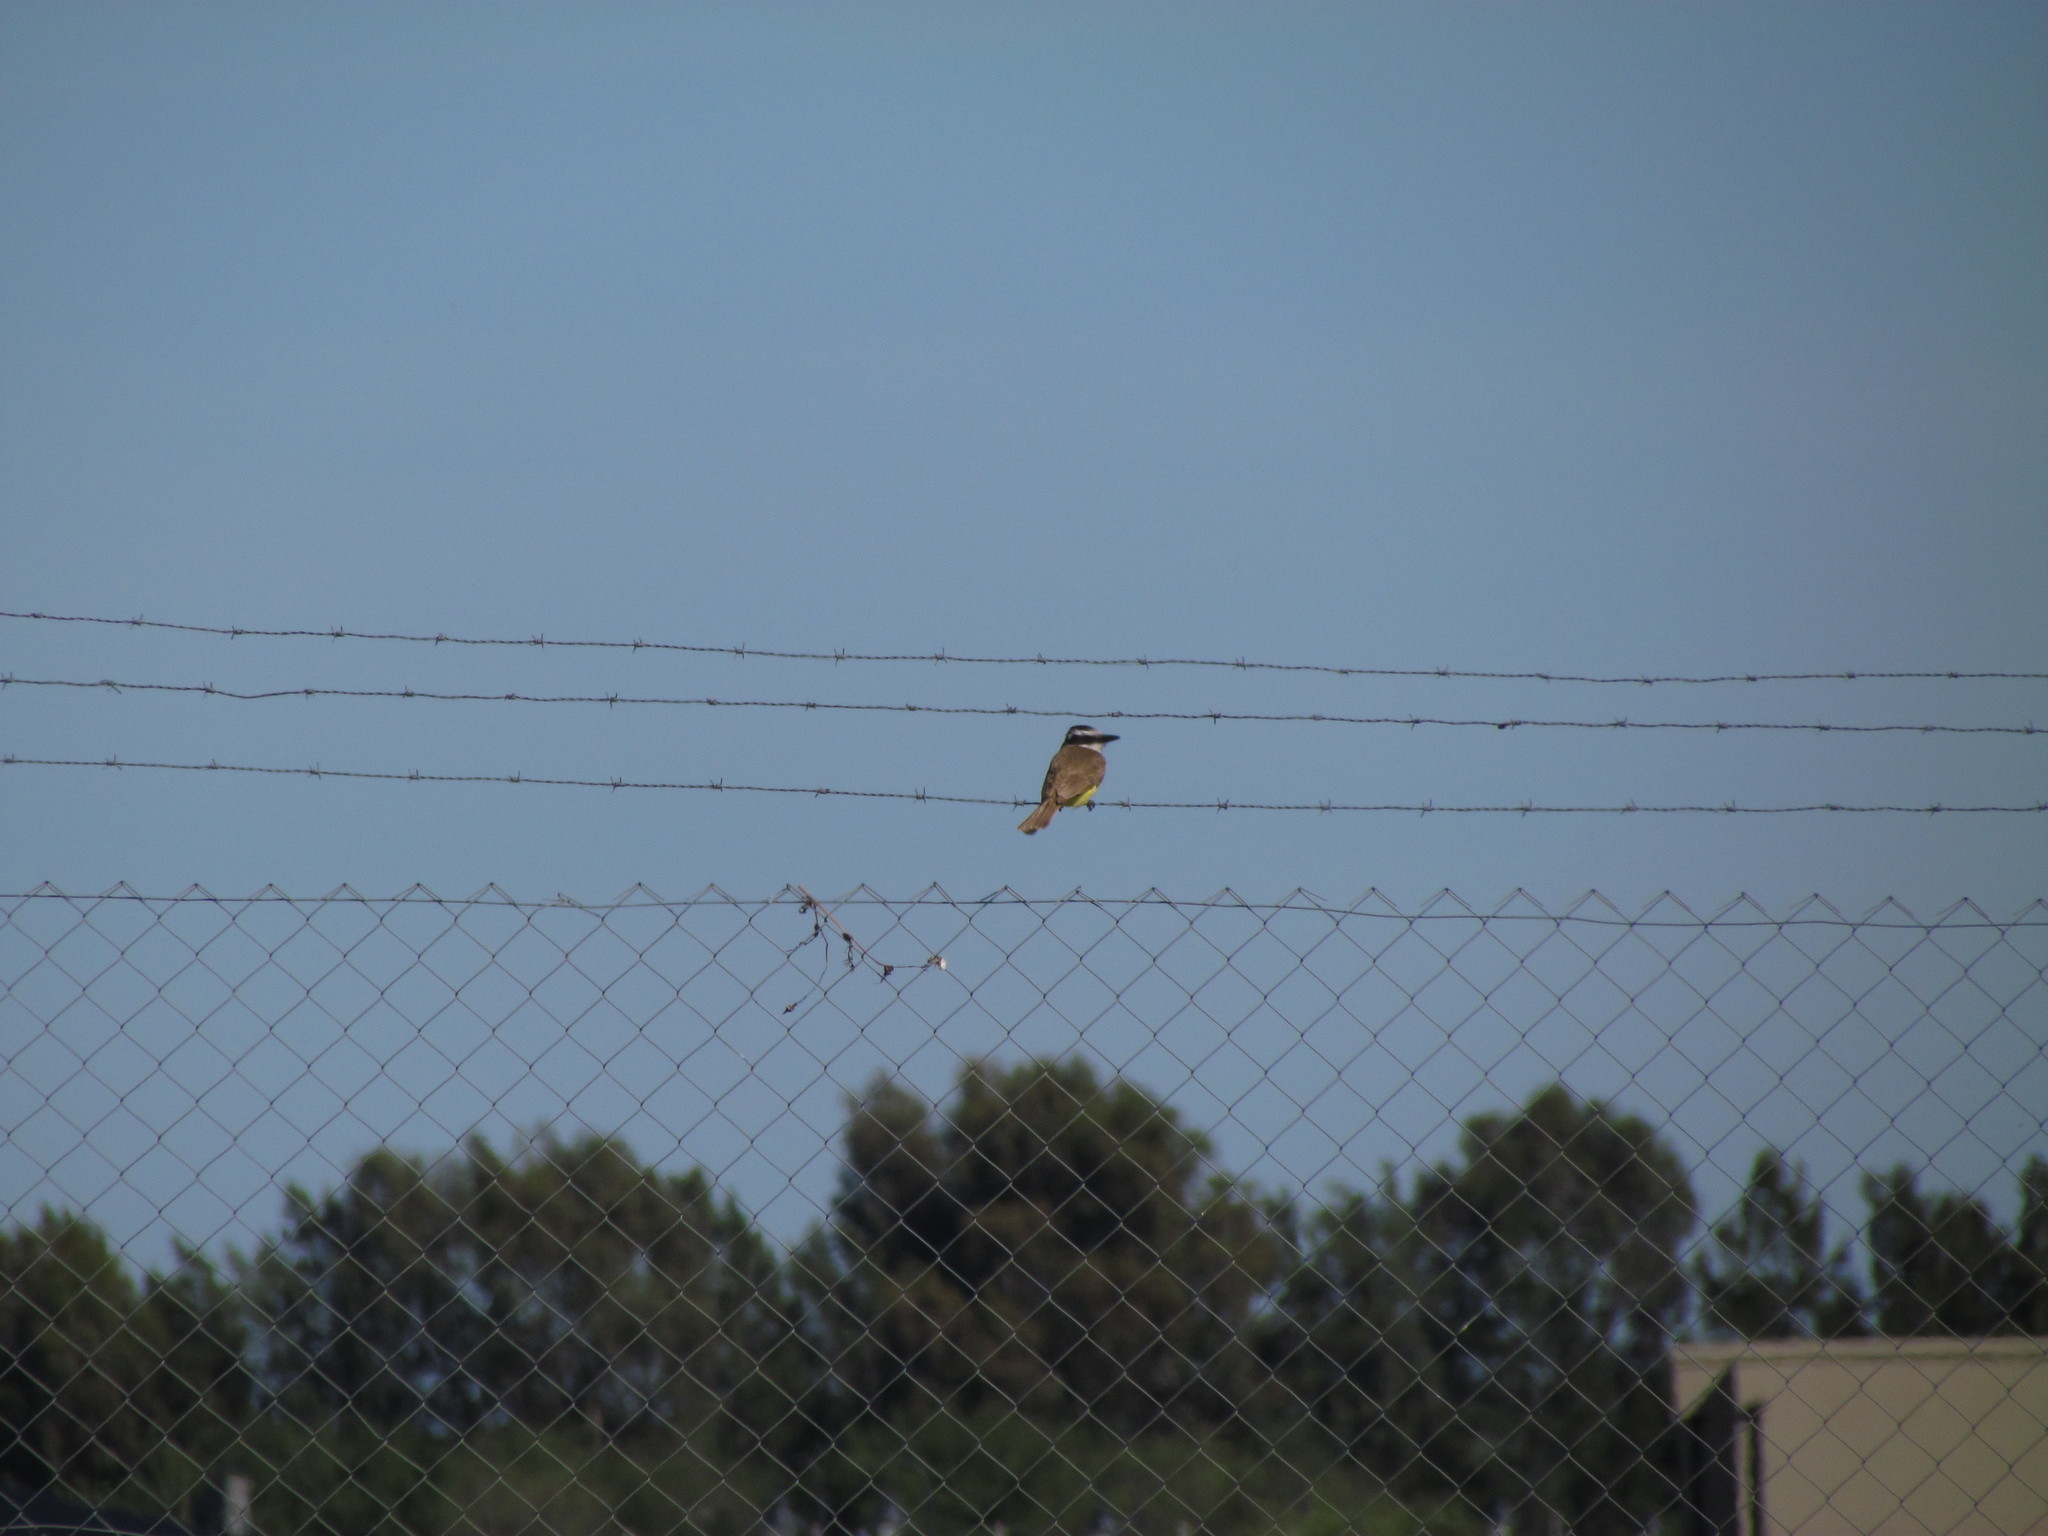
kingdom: Animalia
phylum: Chordata
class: Aves
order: Passeriformes
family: Tyrannidae
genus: Pitangus
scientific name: Pitangus sulphuratus
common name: Great kiskadee
